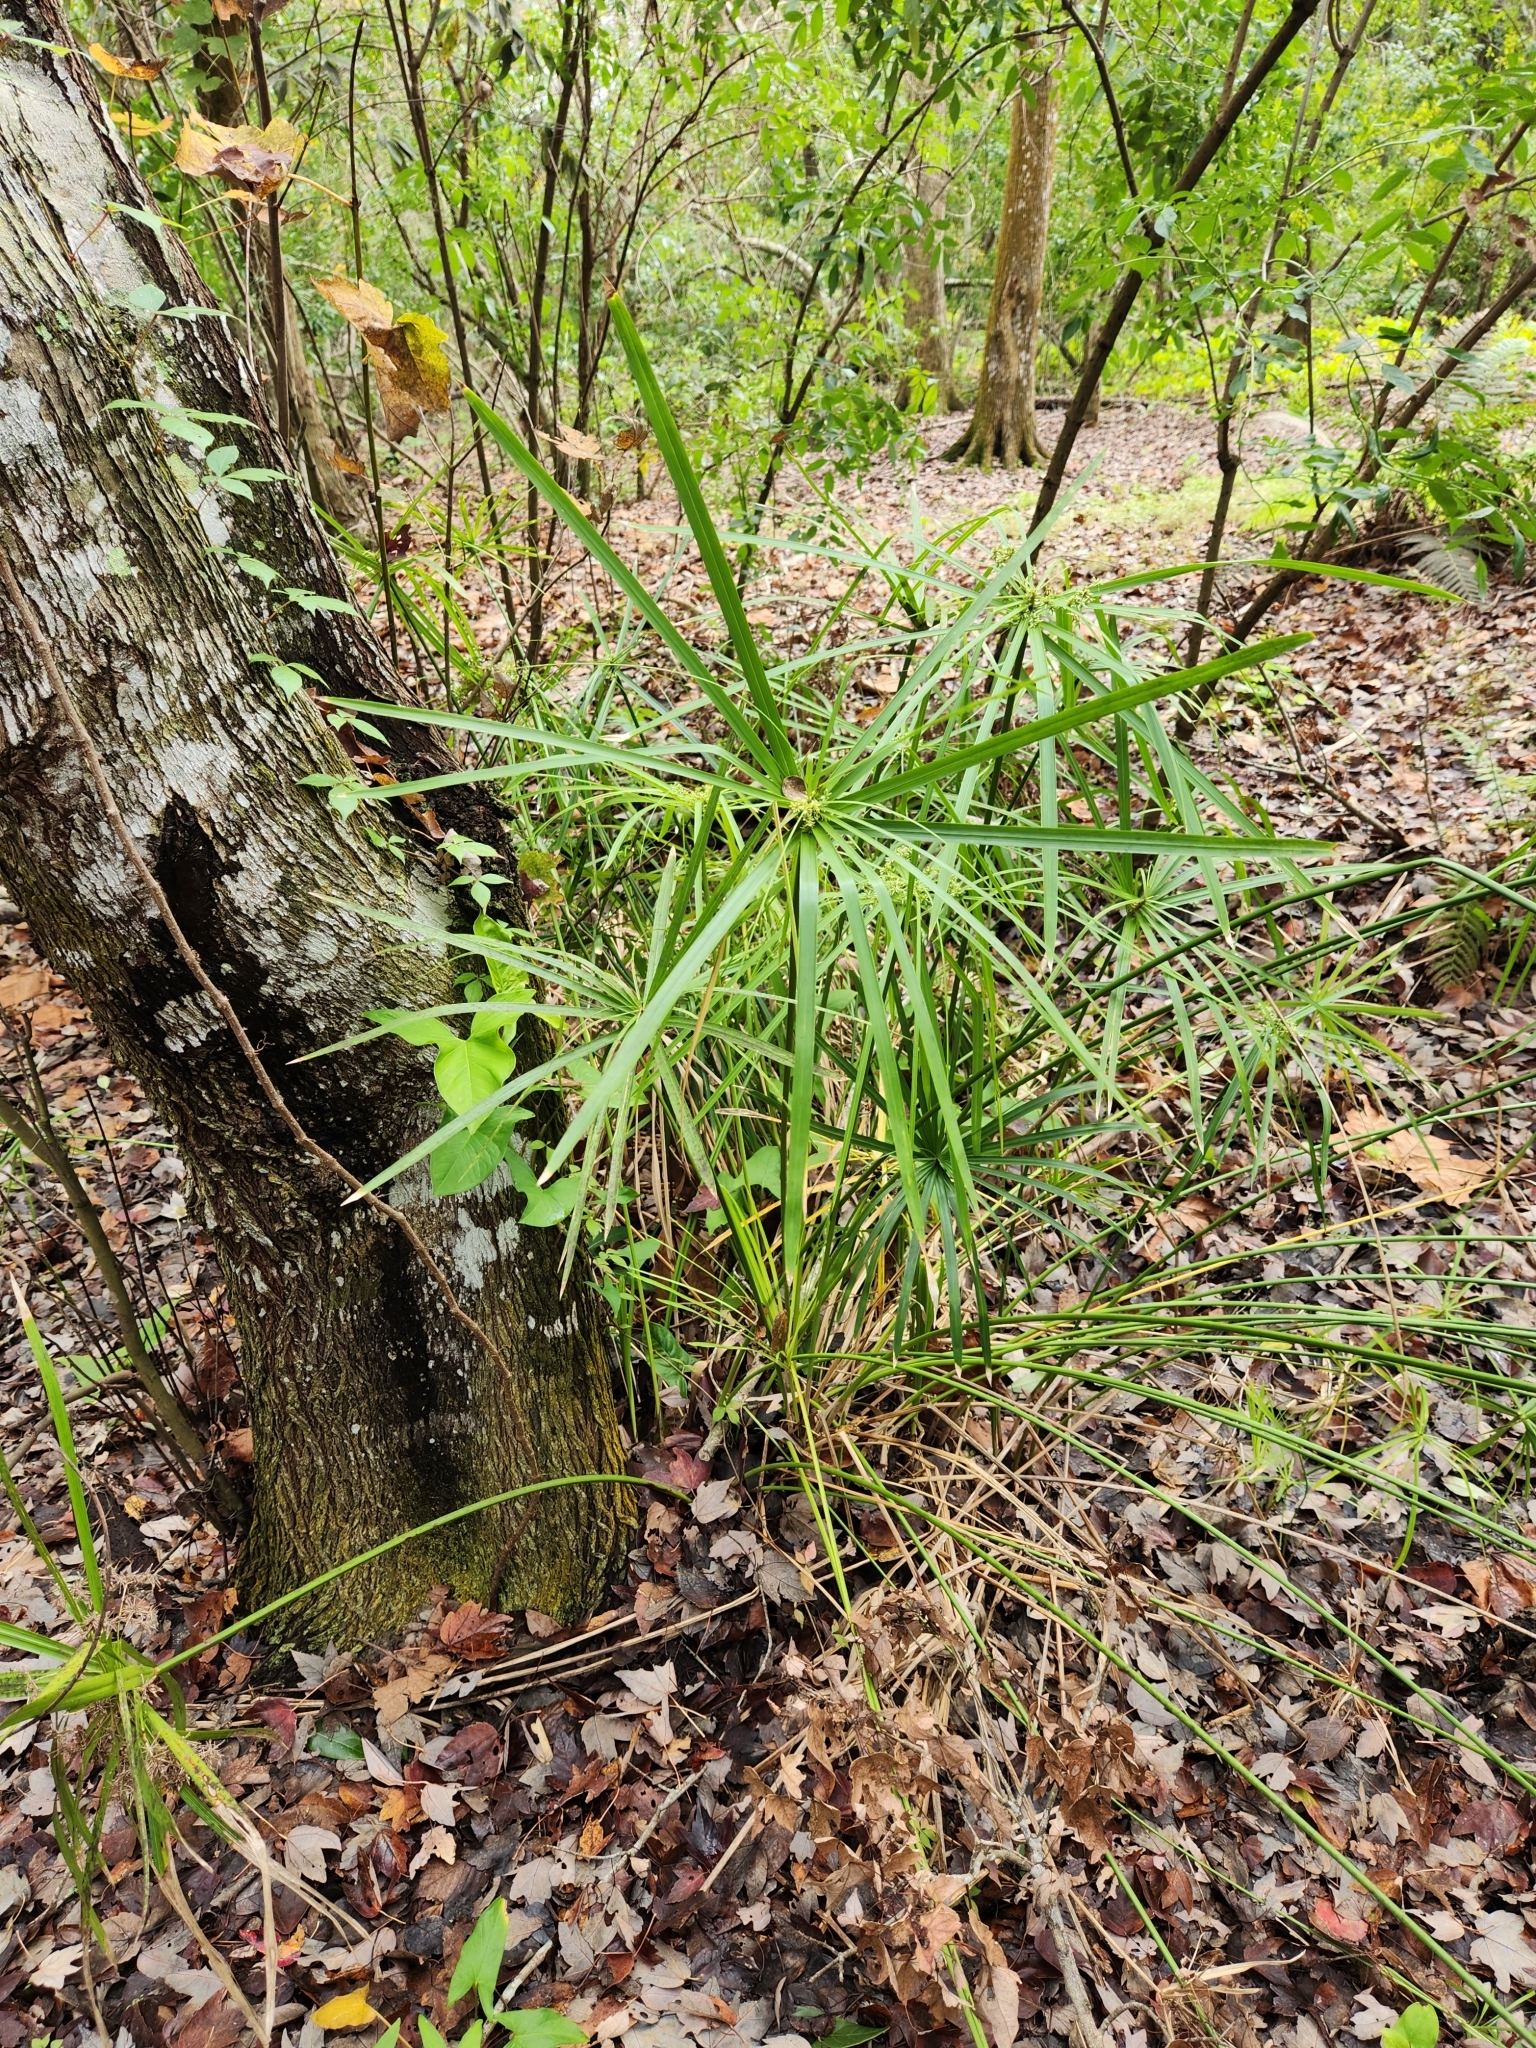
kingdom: Plantae
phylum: Tracheophyta
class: Liliopsida
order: Poales
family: Cyperaceae
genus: Cyperus
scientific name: Cyperus alternifolius
